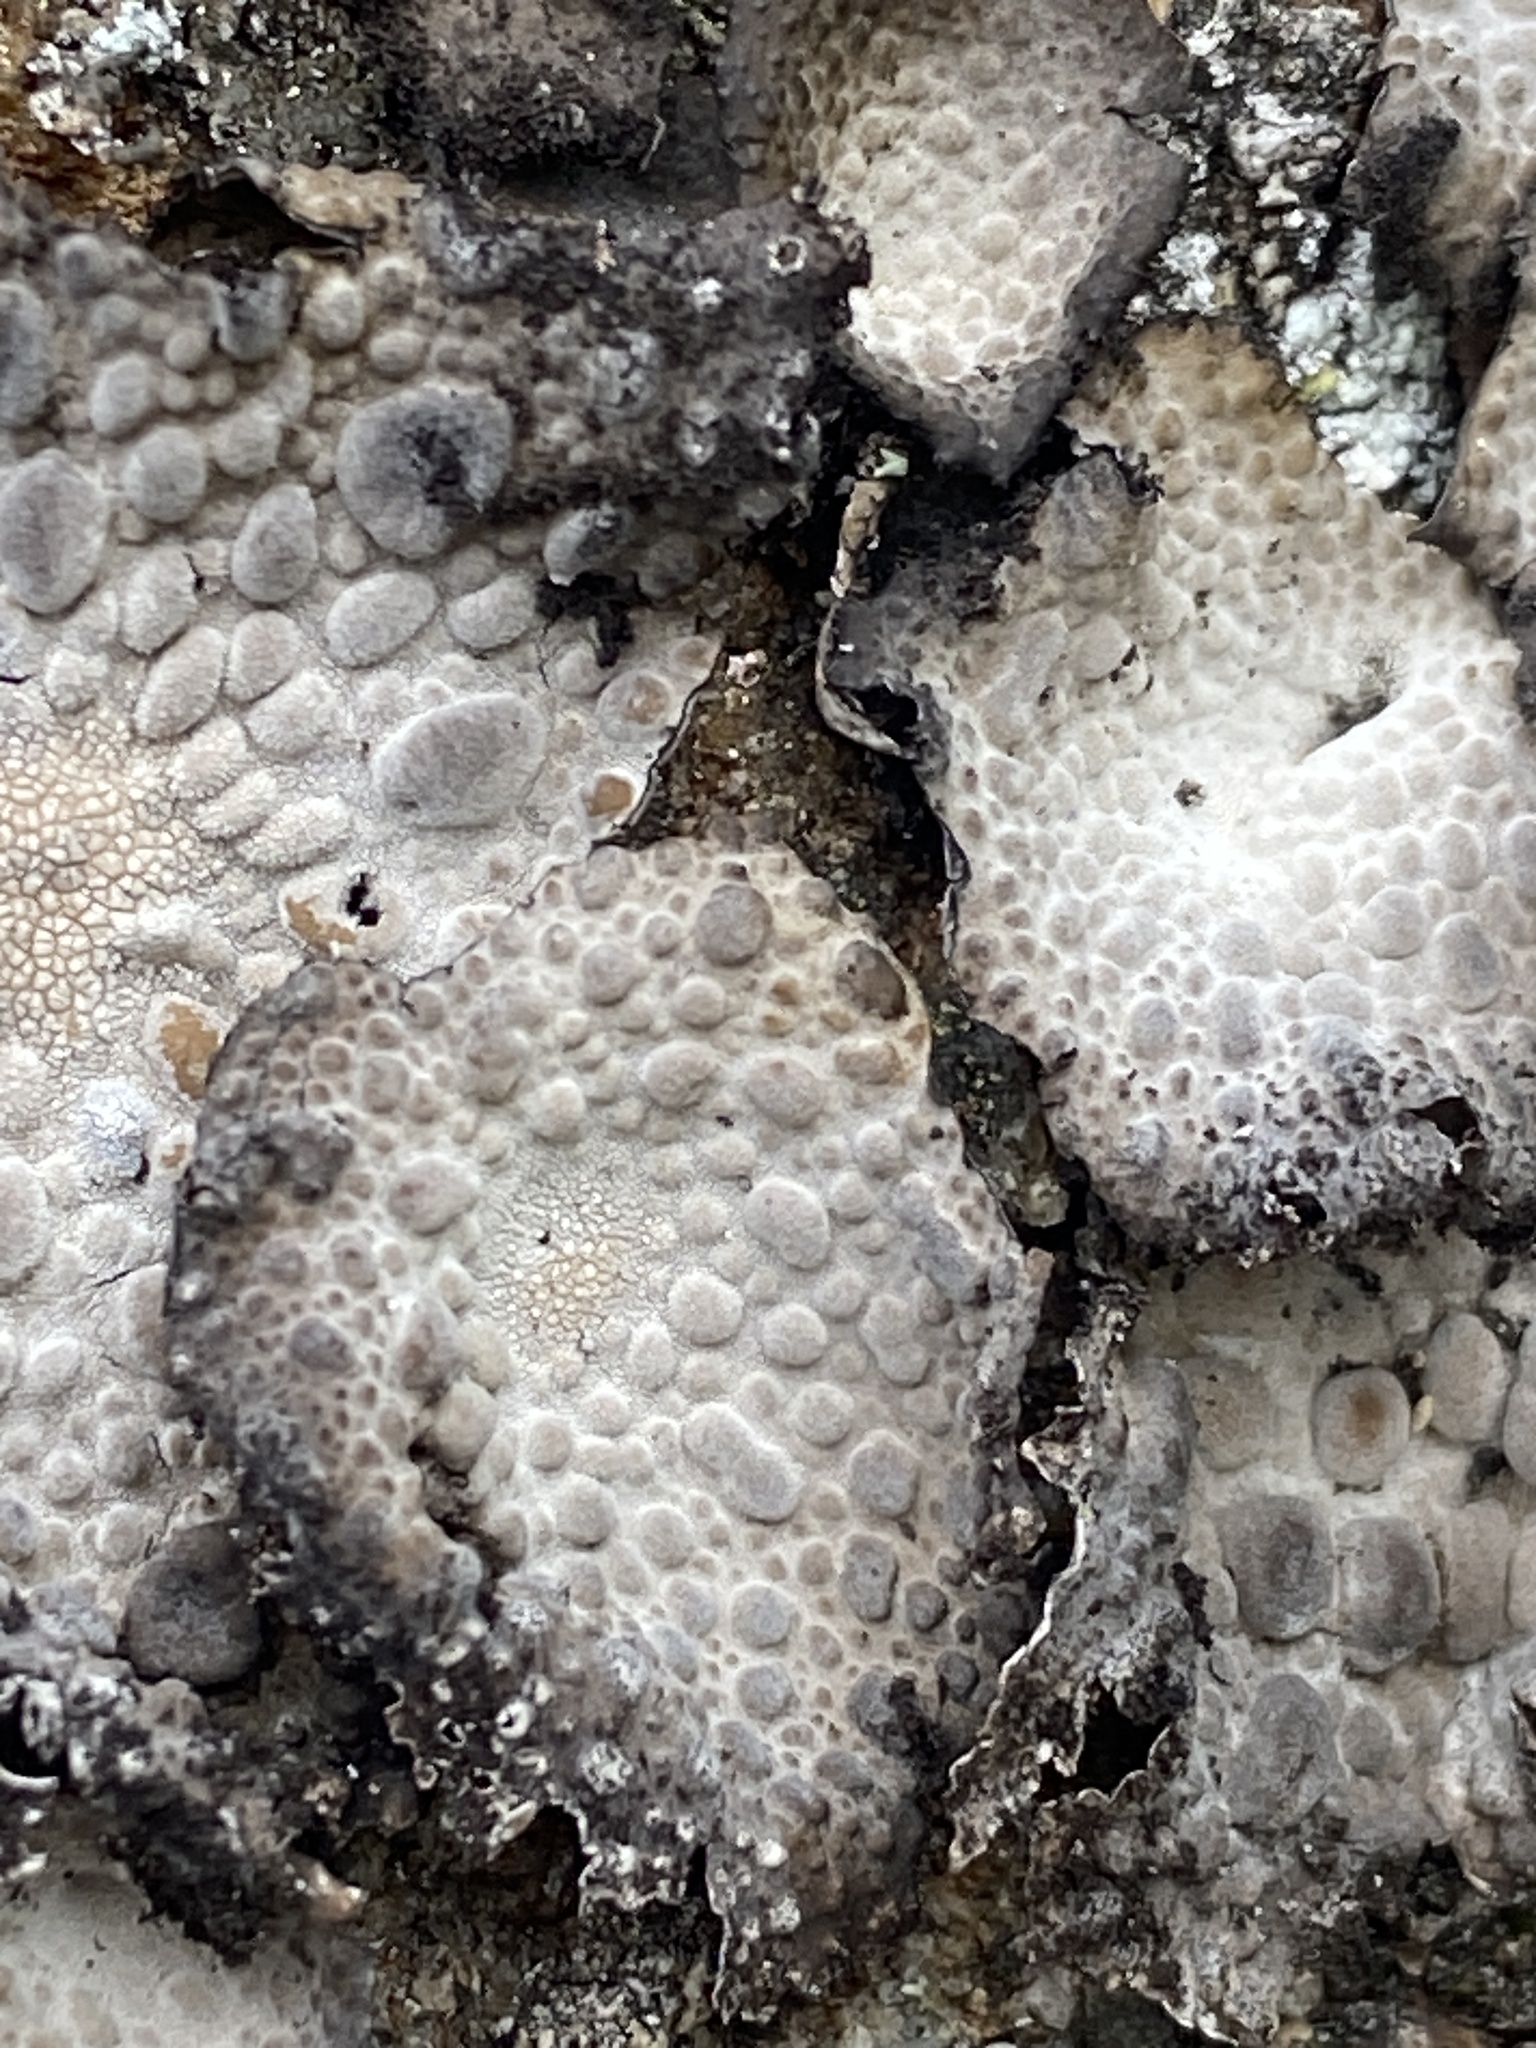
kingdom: Fungi
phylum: Ascomycota
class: Lecanoromycetes
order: Umbilicariales
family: Umbilicariaceae
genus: Lasallia
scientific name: Lasallia pustulata
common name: Blistered toadskin lichen
